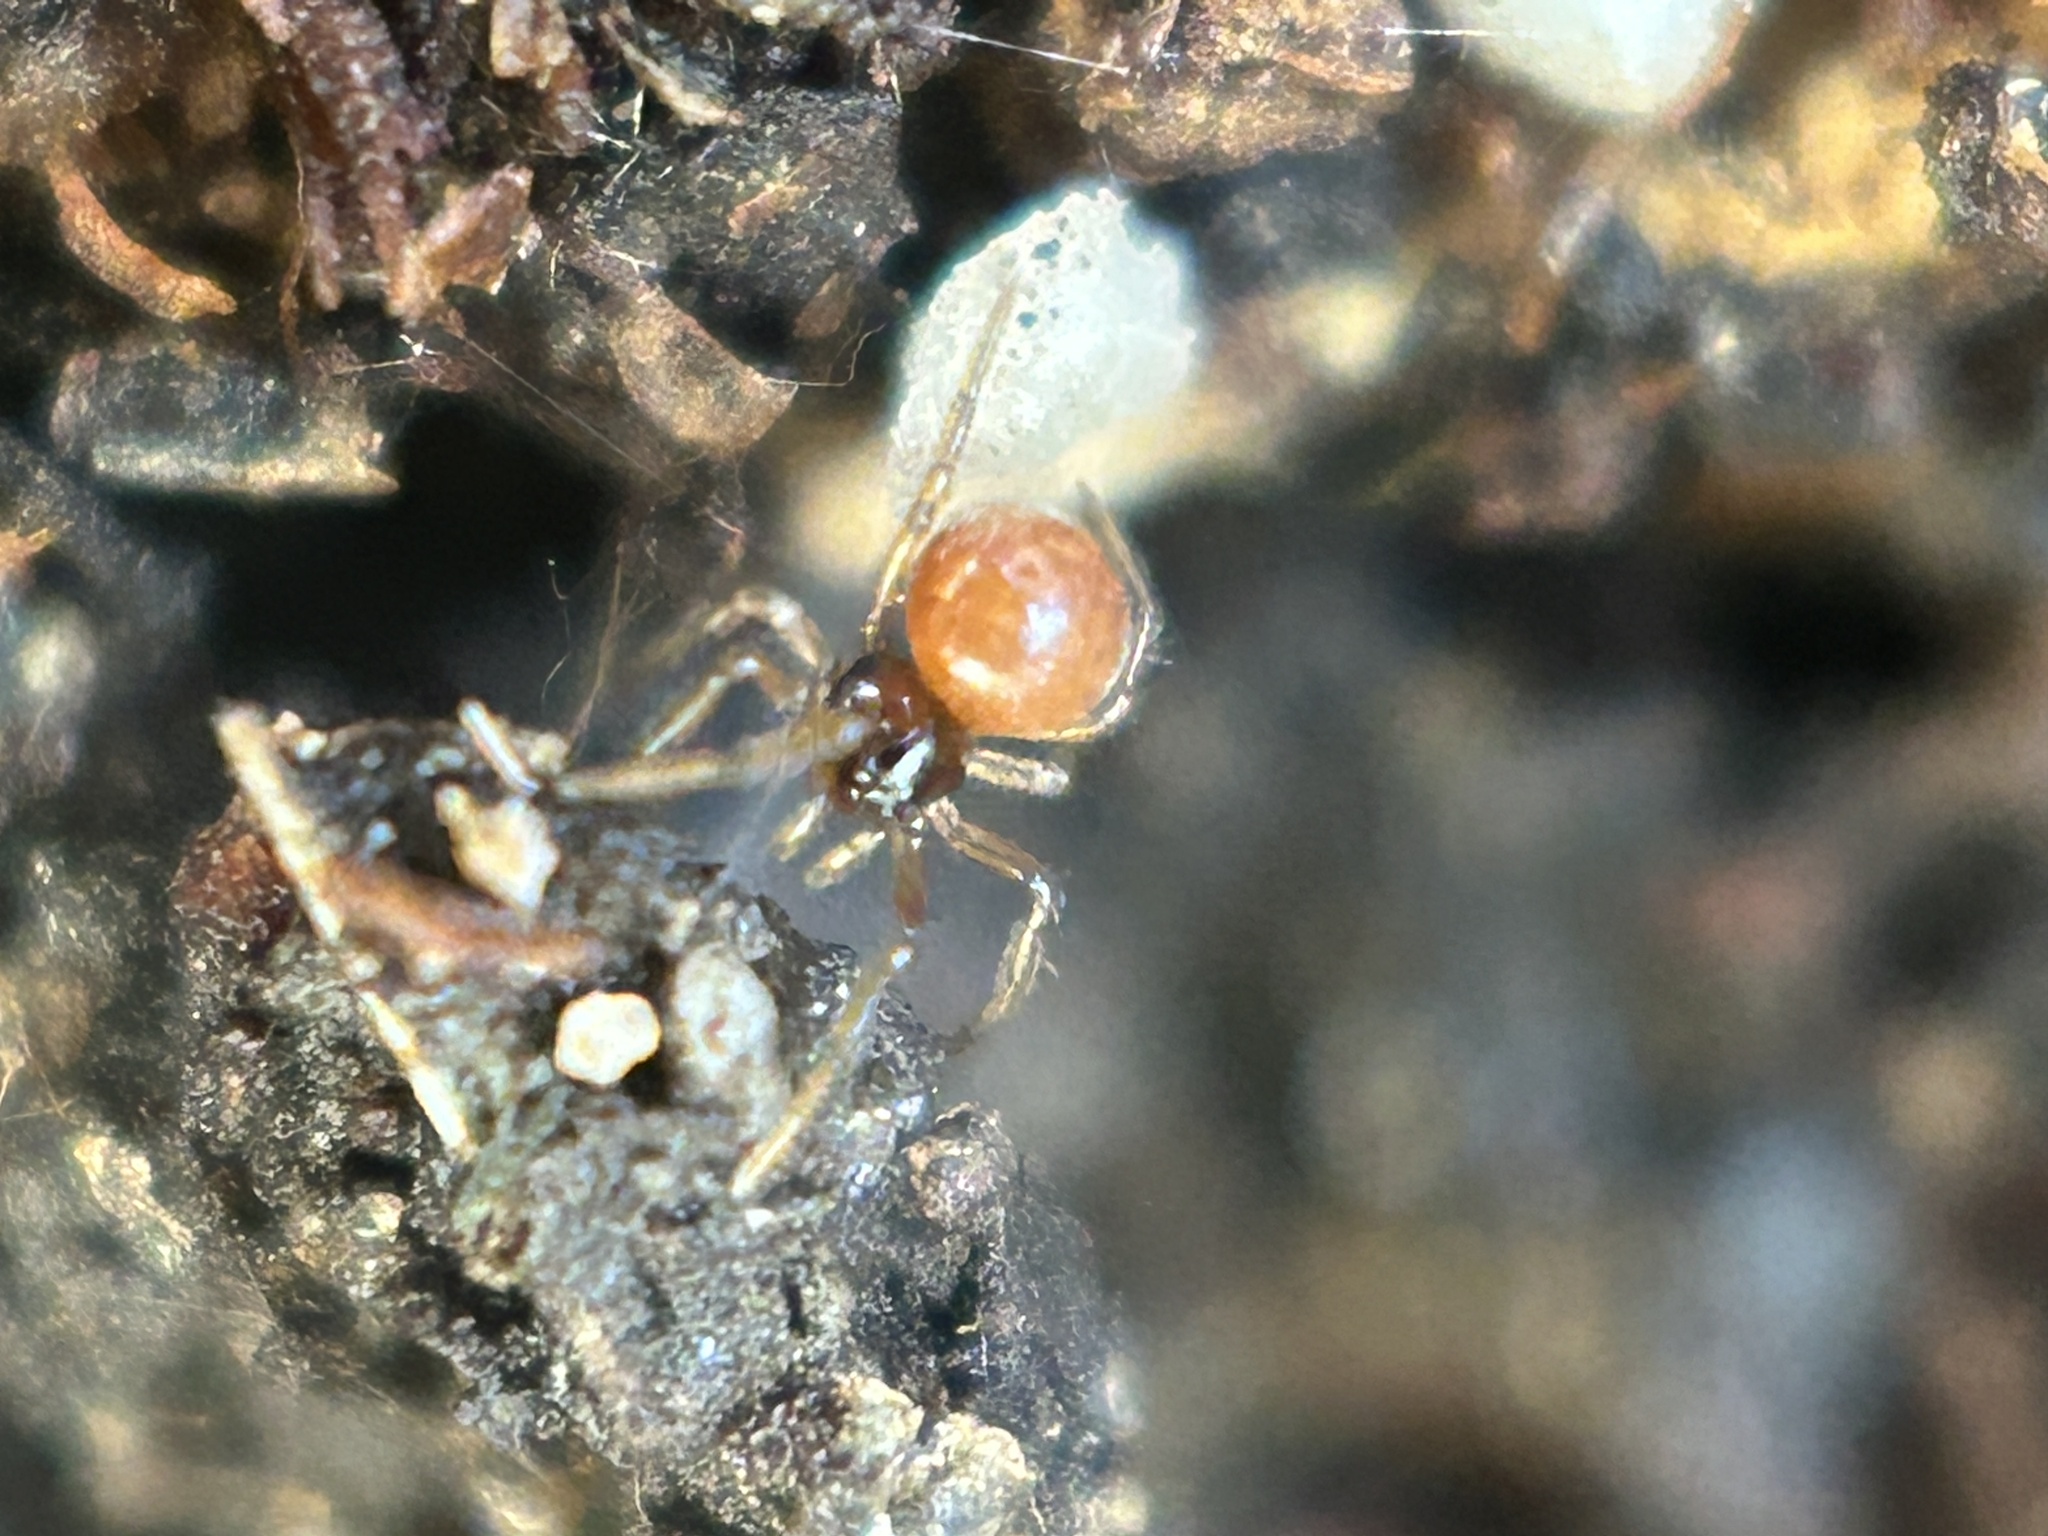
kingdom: Animalia
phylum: Arthropoda
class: Arachnida
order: Araneae
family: Theridiidae
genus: Crustulina
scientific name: Crustulina sticta
